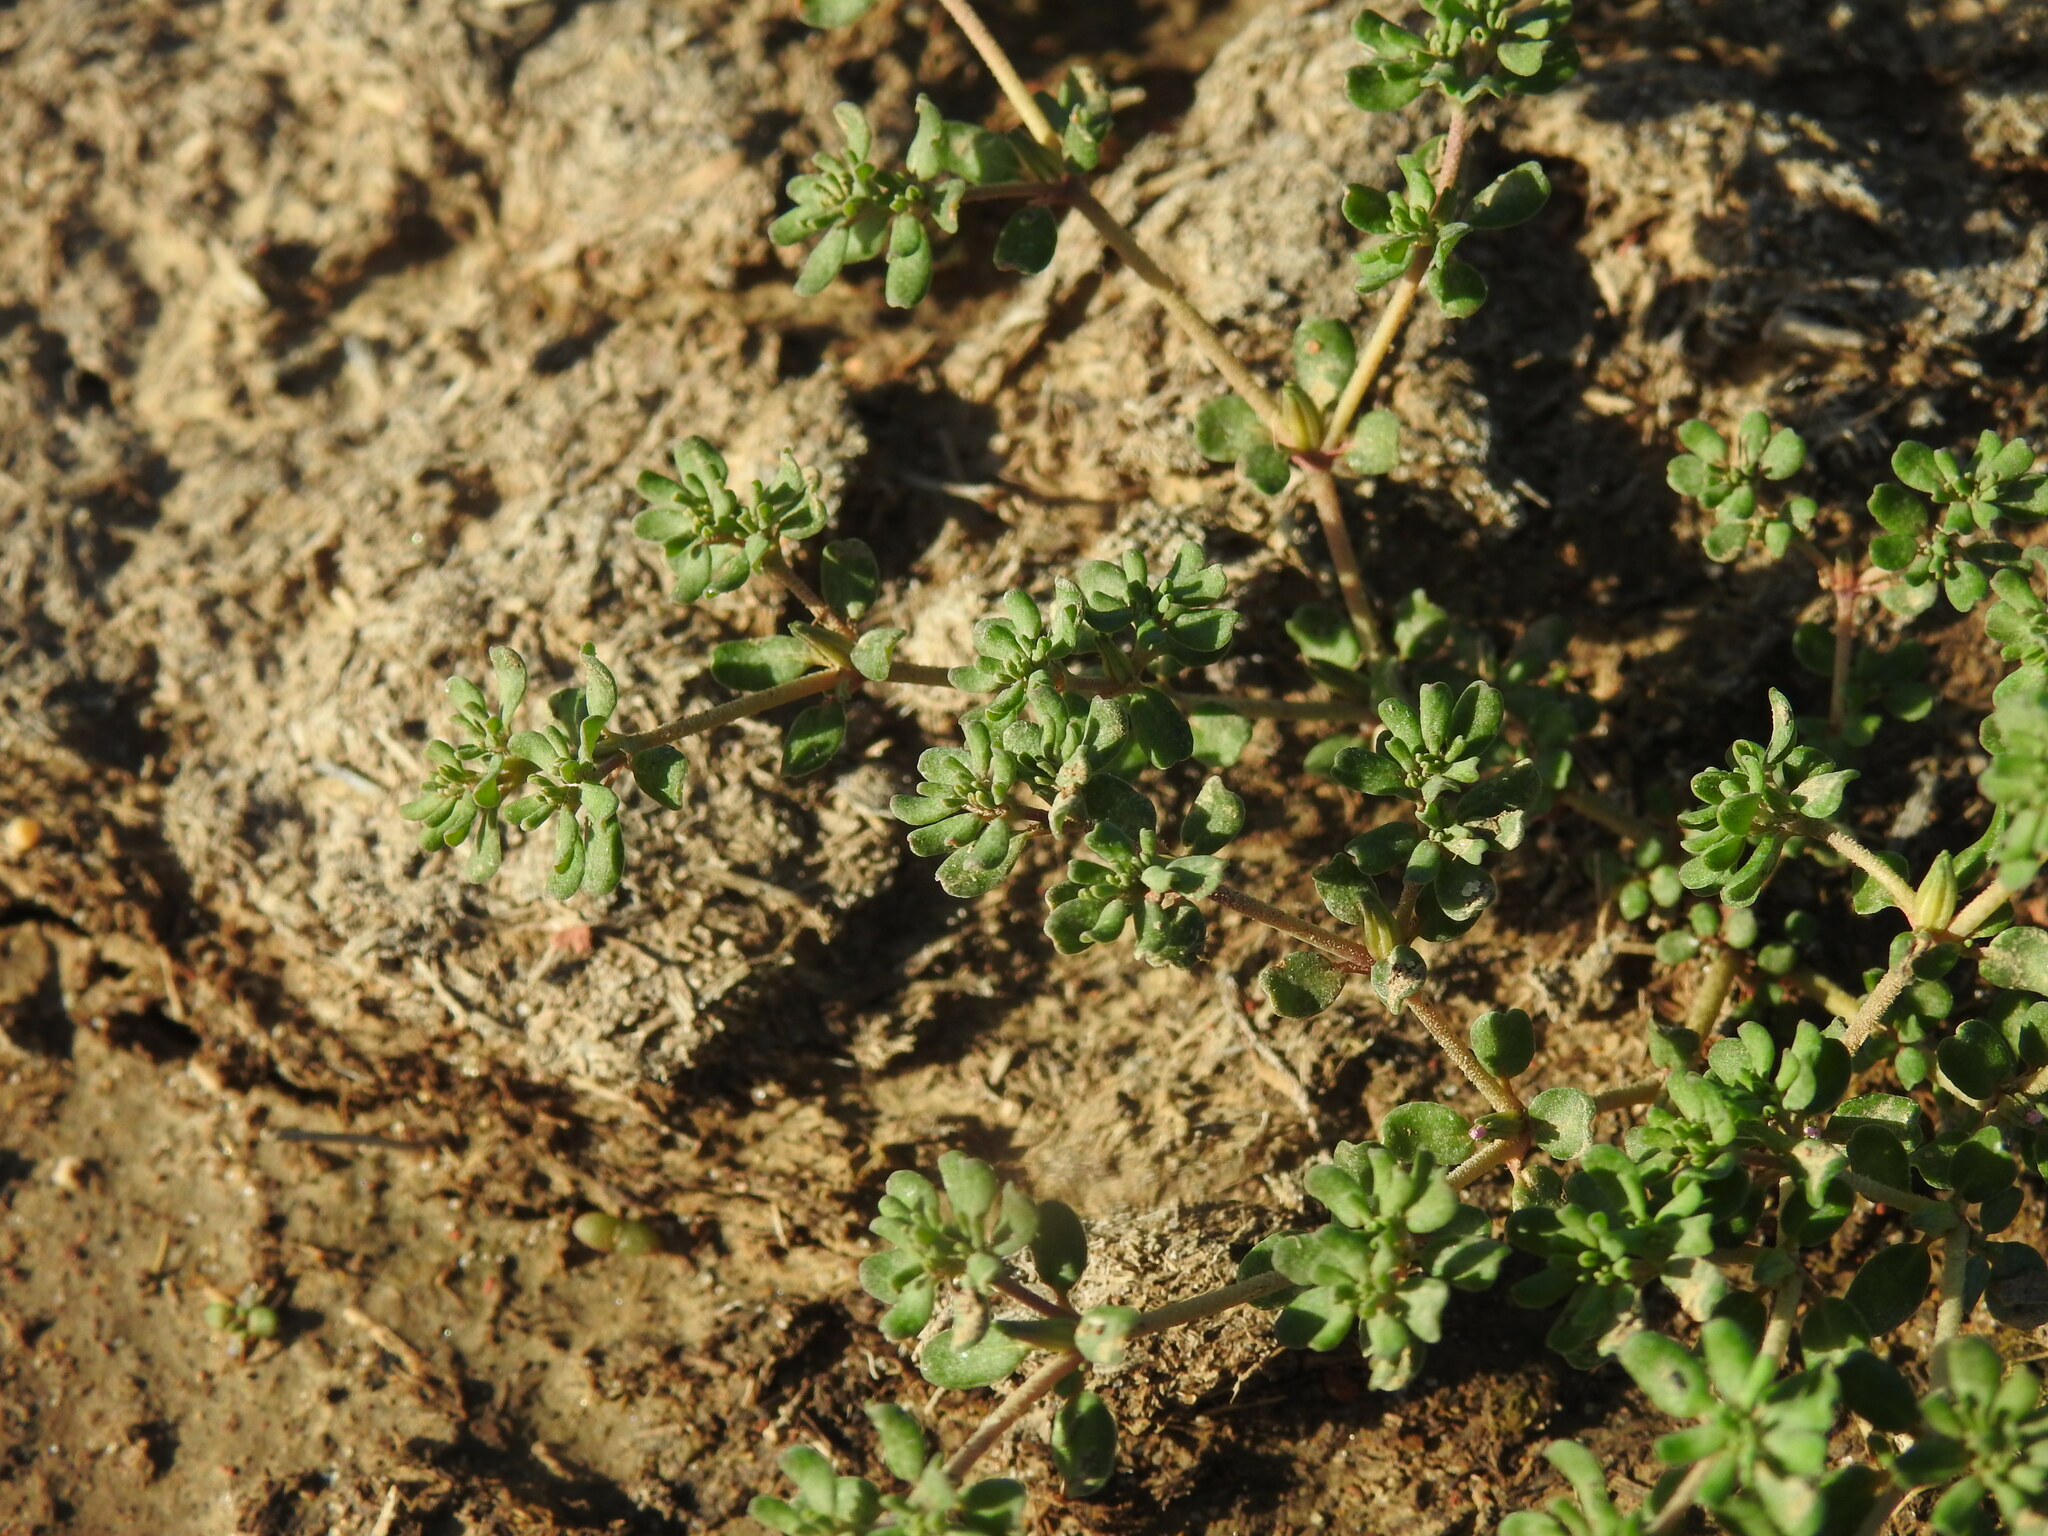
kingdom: Plantae
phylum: Tracheophyta
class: Magnoliopsida
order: Caryophyllales
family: Frankeniaceae
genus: Frankenia
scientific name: Frankenia pulverulenta
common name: European seaheath
